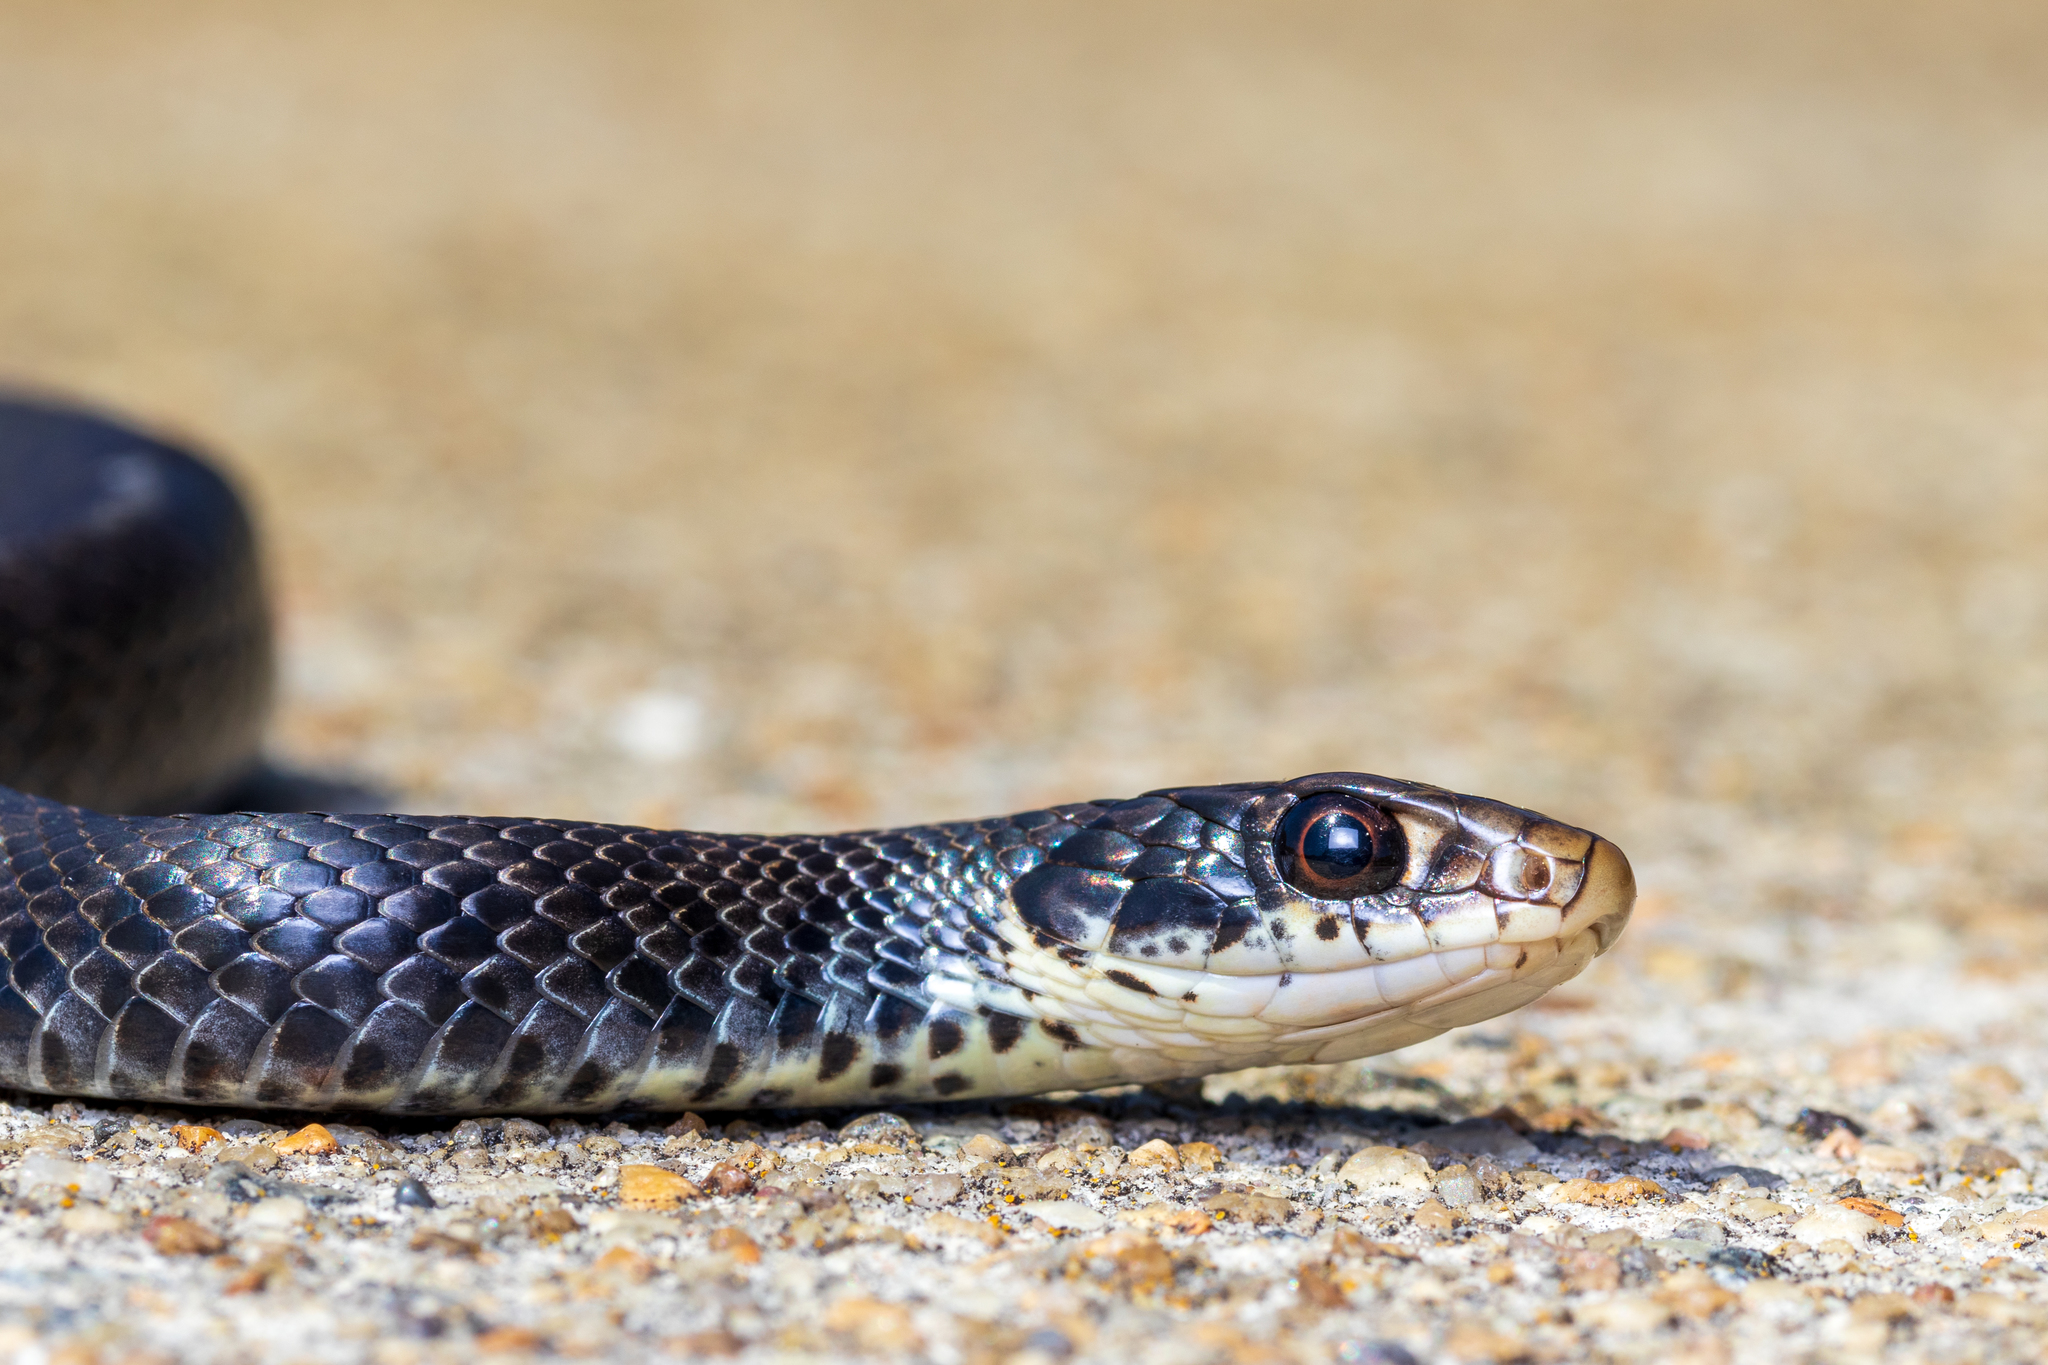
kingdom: Animalia
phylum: Chordata
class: Squamata
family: Colubridae
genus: Coluber
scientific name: Coluber constrictor
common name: Eastern racer
